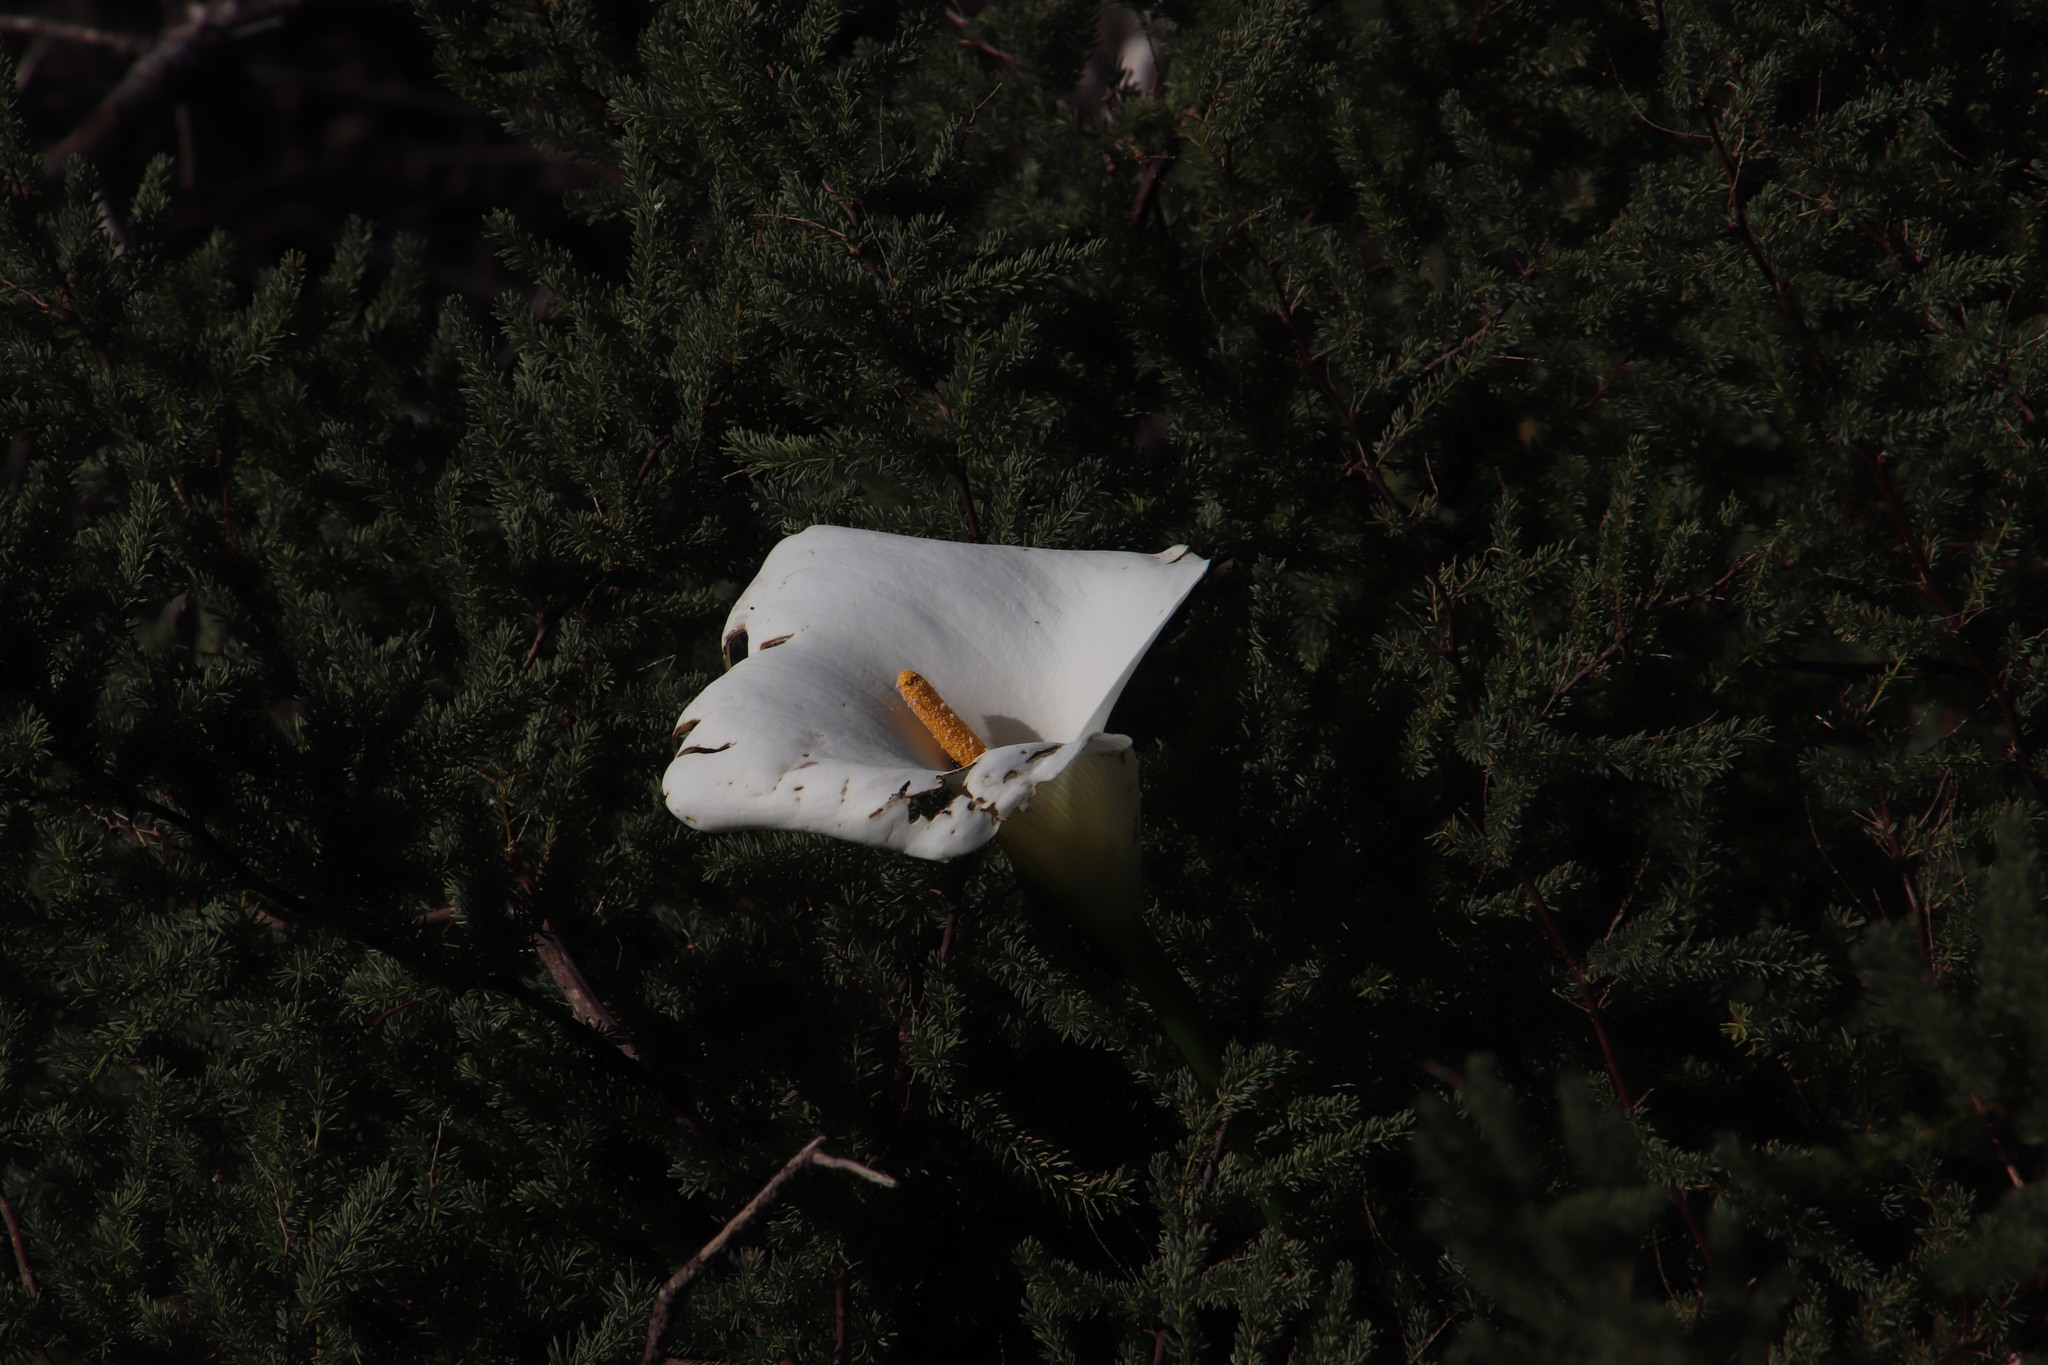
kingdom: Plantae
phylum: Tracheophyta
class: Liliopsida
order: Alismatales
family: Araceae
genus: Zantedeschia
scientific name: Zantedeschia aethiopica
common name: Altar-lily
